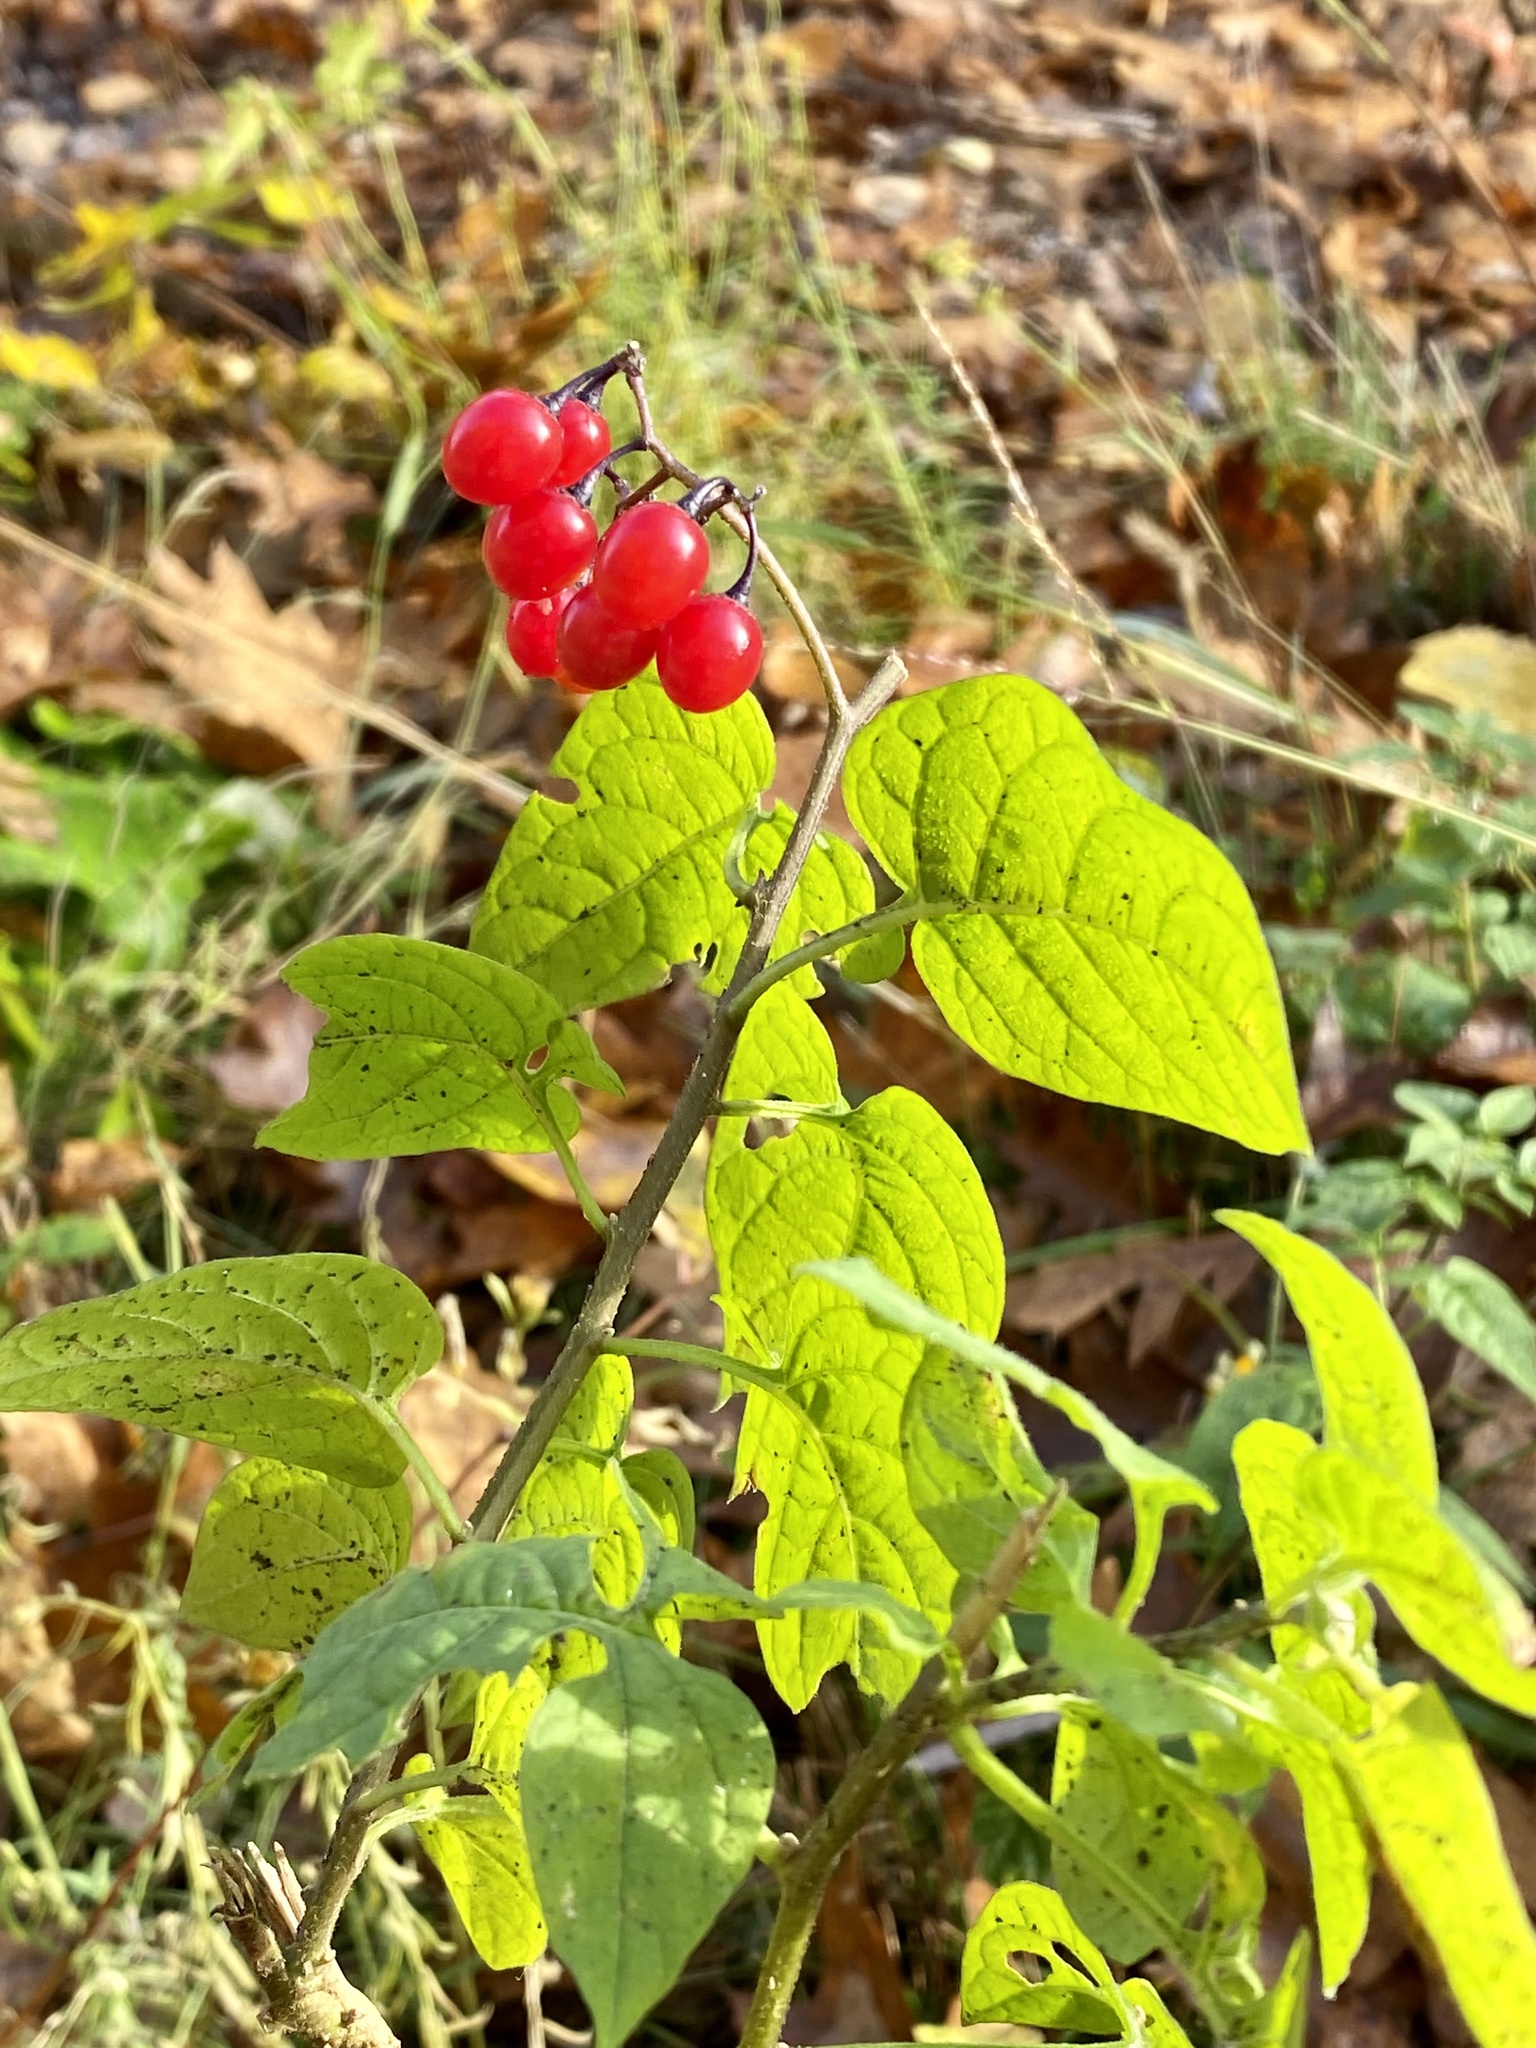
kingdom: Plantae
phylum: Tracheophyta
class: Magnoliopsida
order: Solanales
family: Solanaceae
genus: Solanum
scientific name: Solanum dulcamara
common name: Climbing nightshade
